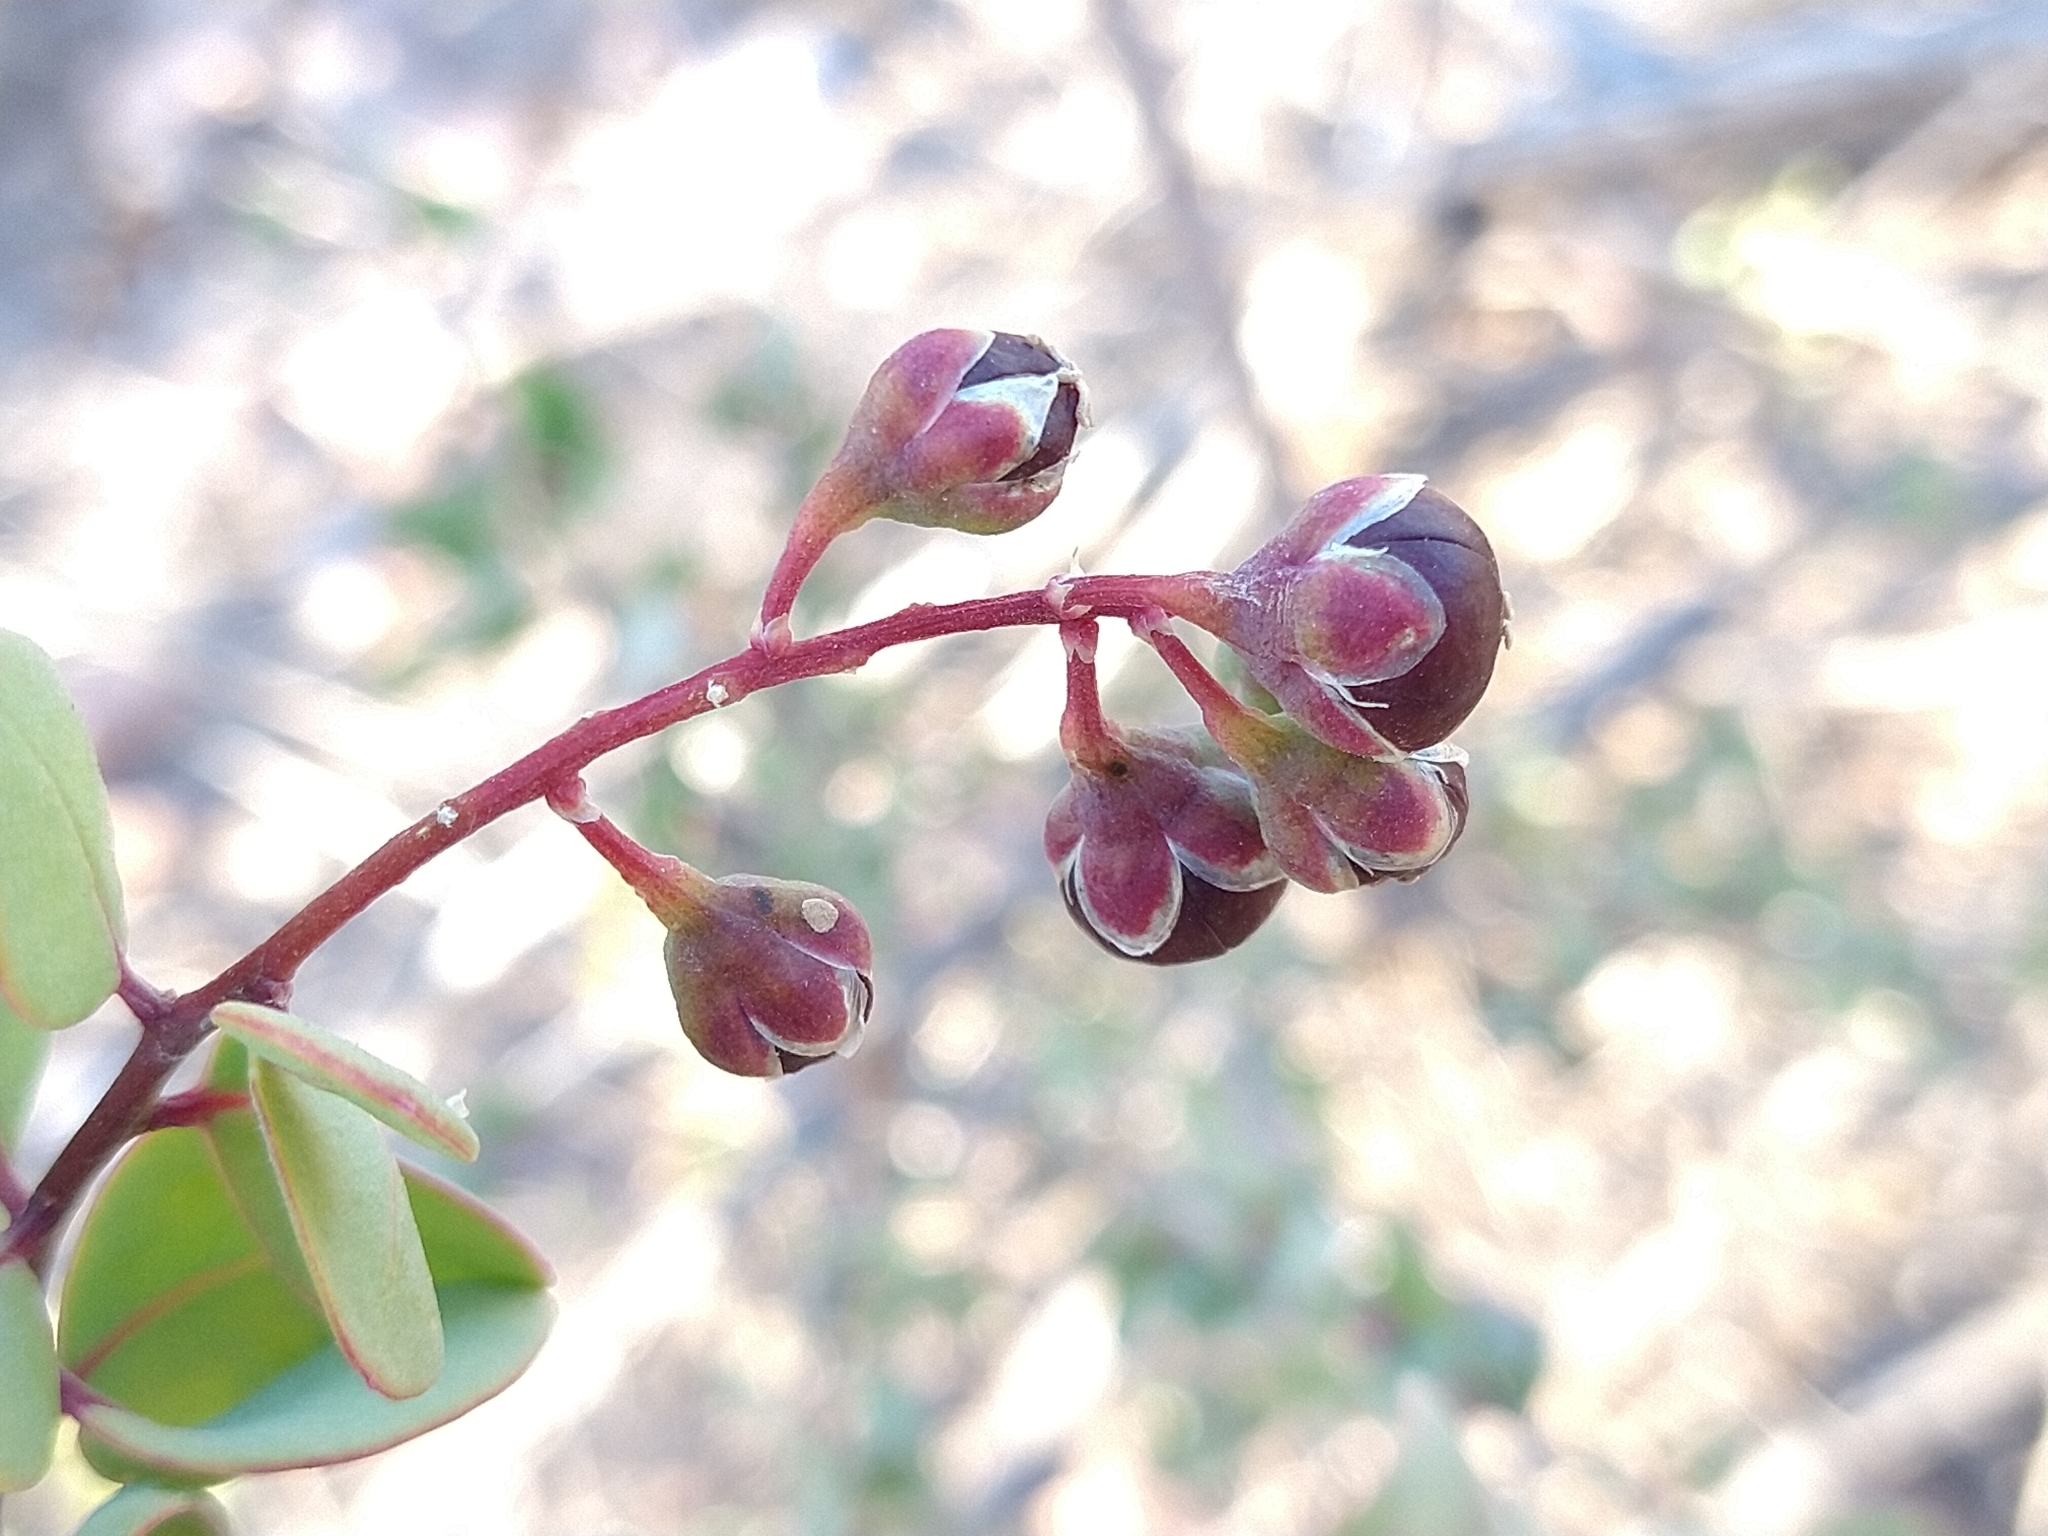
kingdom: Plantae
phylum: Tracheophyta
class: Magnoliopsida
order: Caryophyllales
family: Stegnospermataceae
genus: Stegnosperma
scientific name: Stegnosperma halimifolium
